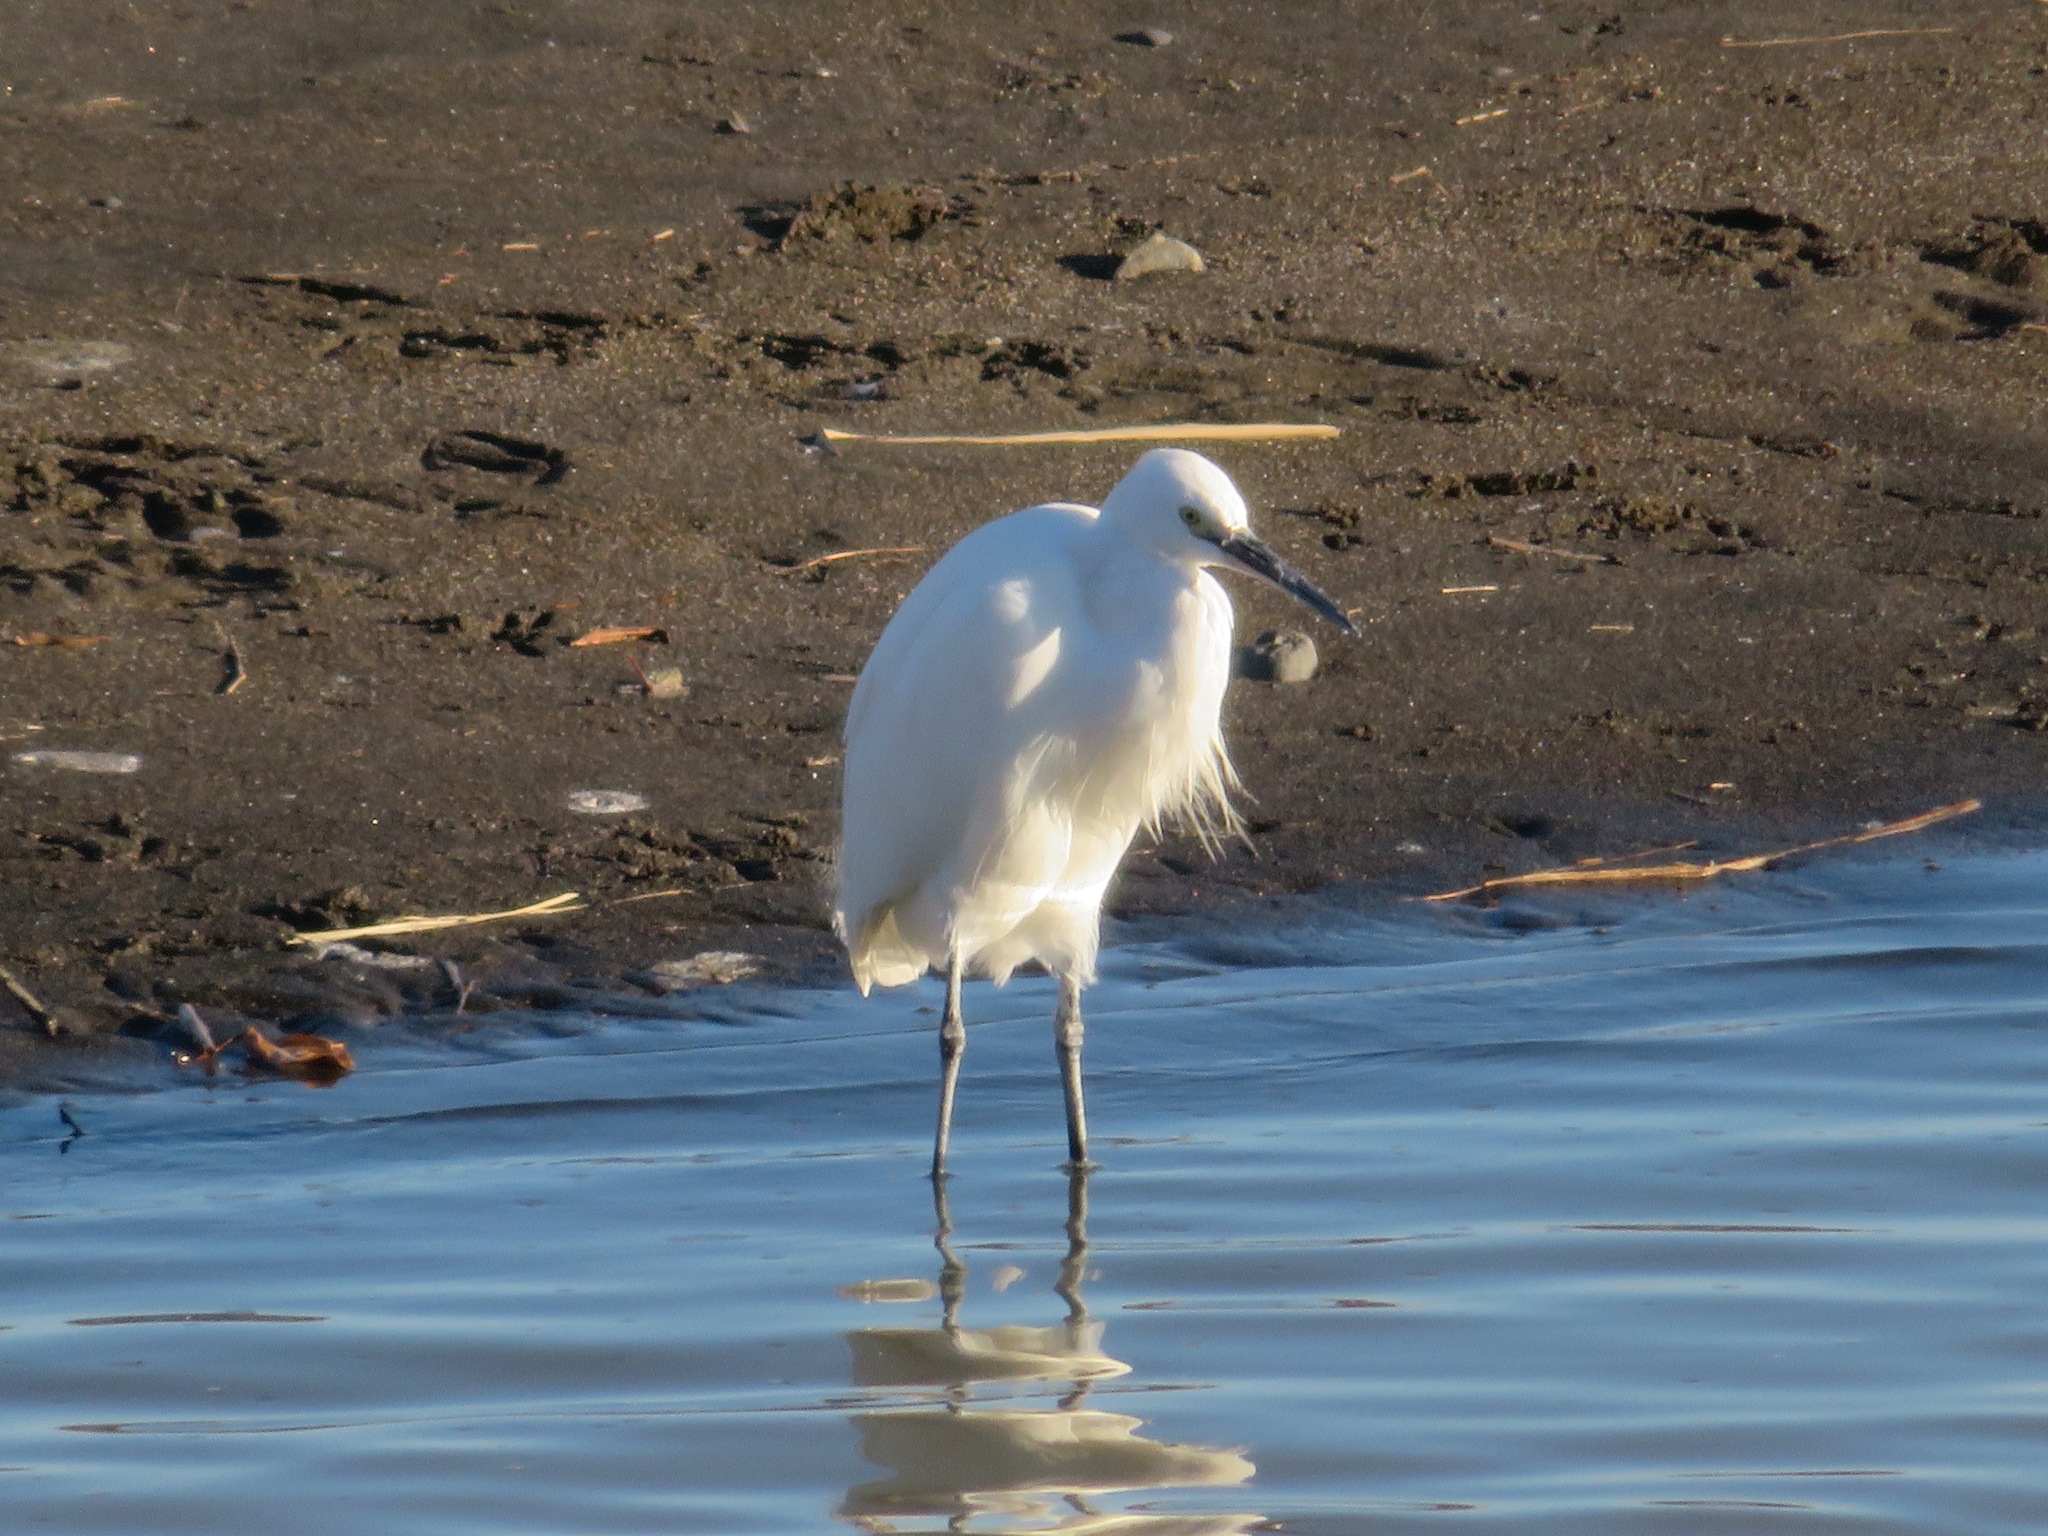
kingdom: Animalia
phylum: Chordata
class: Aves
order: Pelecaniformes
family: Ardeidae
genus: Egretta
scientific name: Egretta garzetta
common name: Little egret
